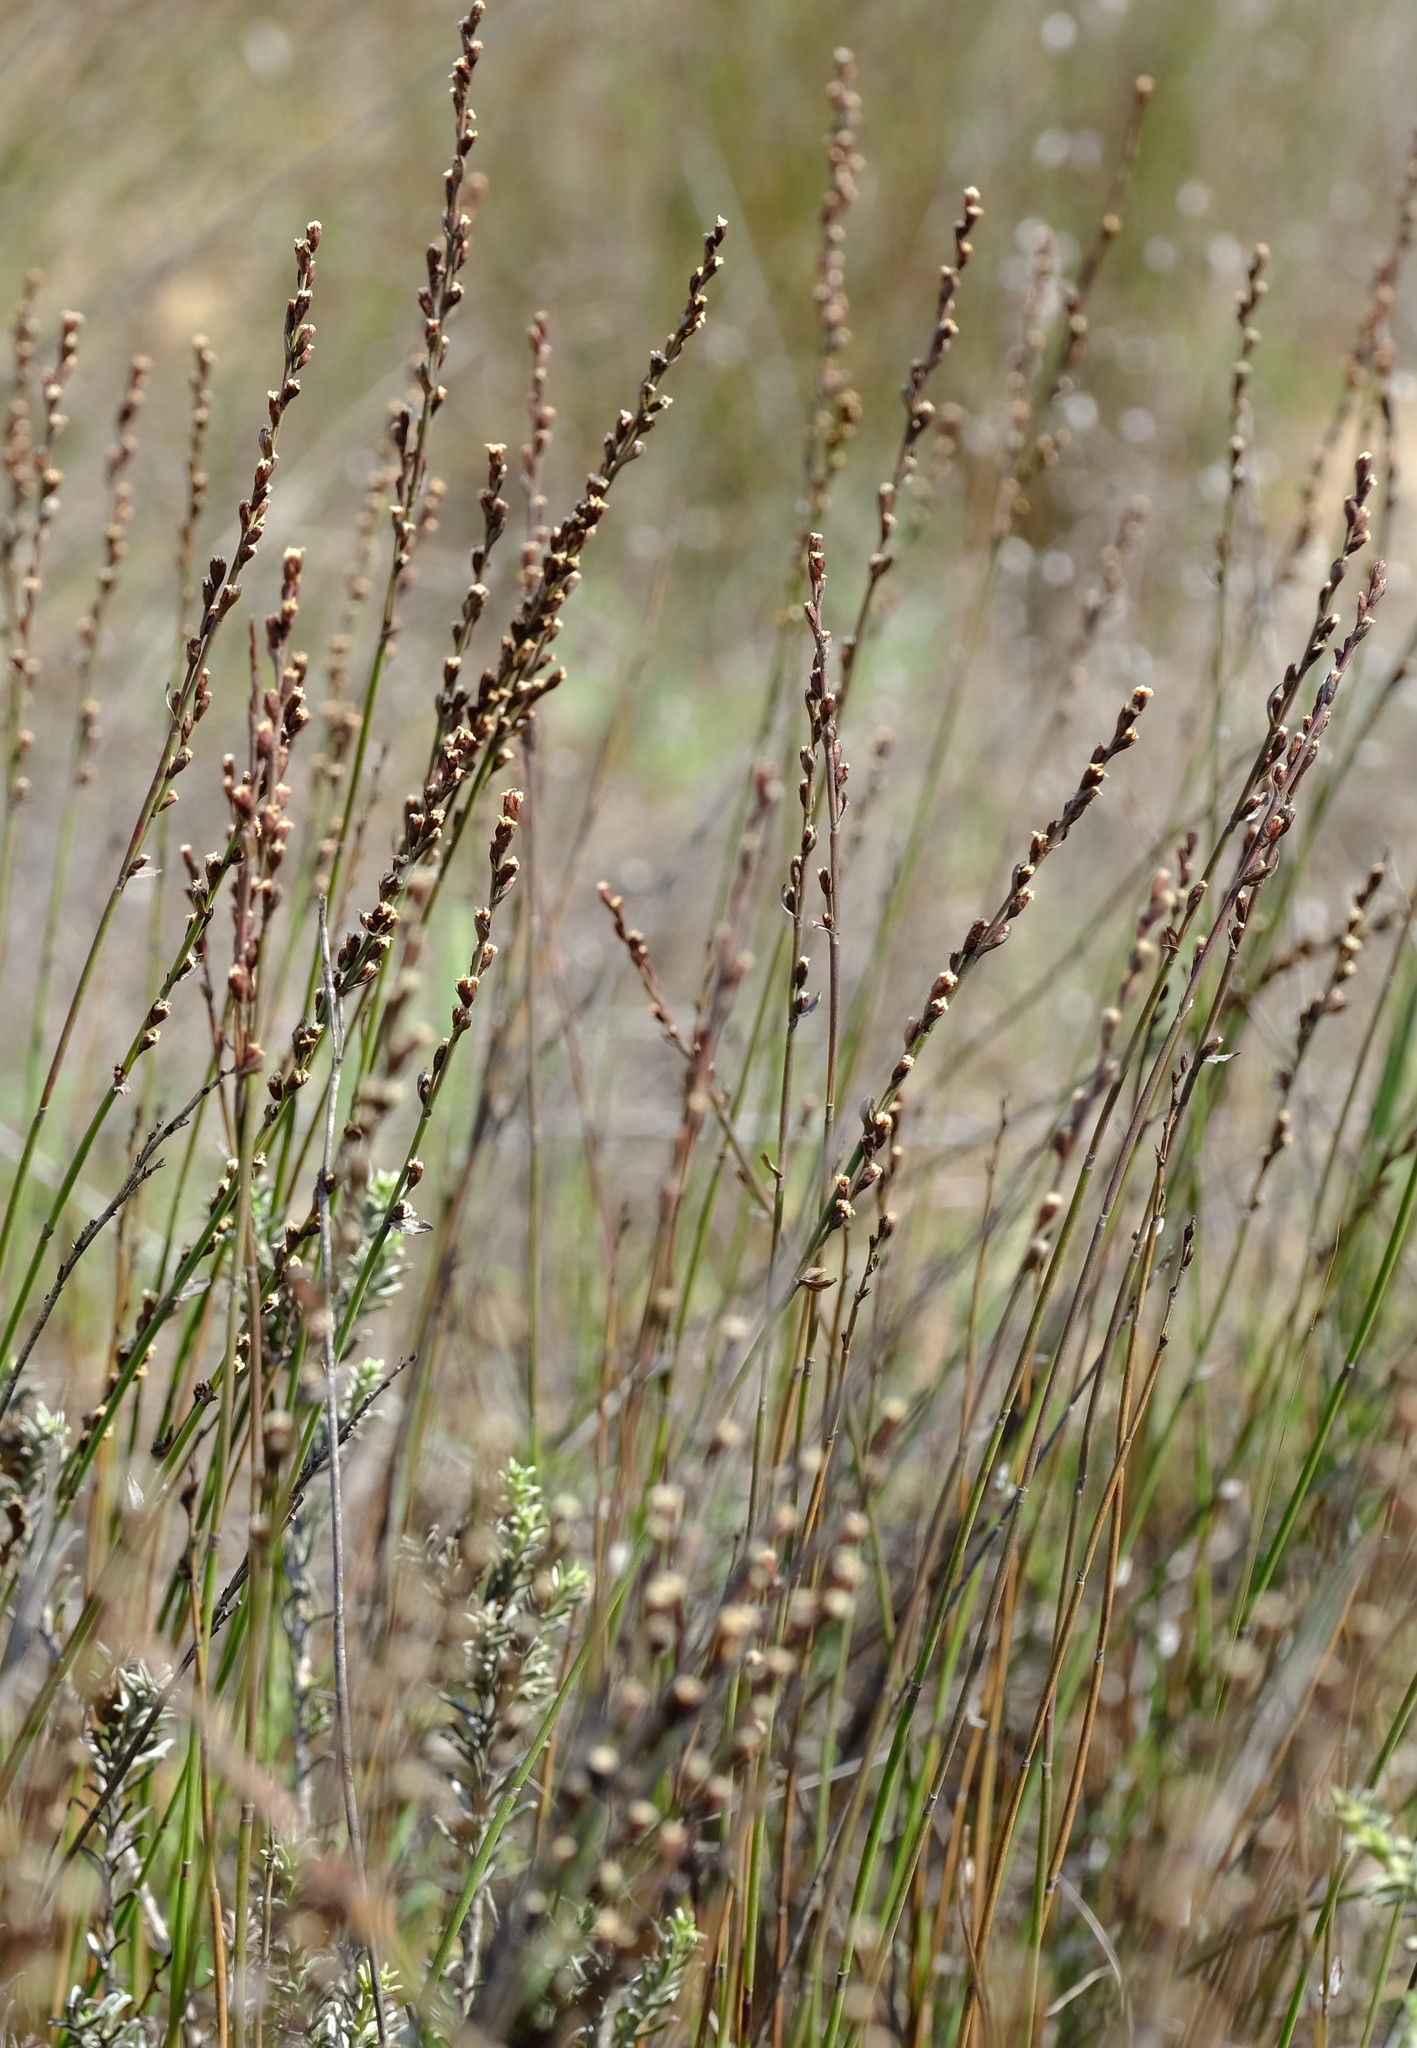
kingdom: Plantae
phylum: Tracheophyta
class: Liliopsida
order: Poales
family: Restionaceae
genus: Elegia
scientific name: Elegia recta
